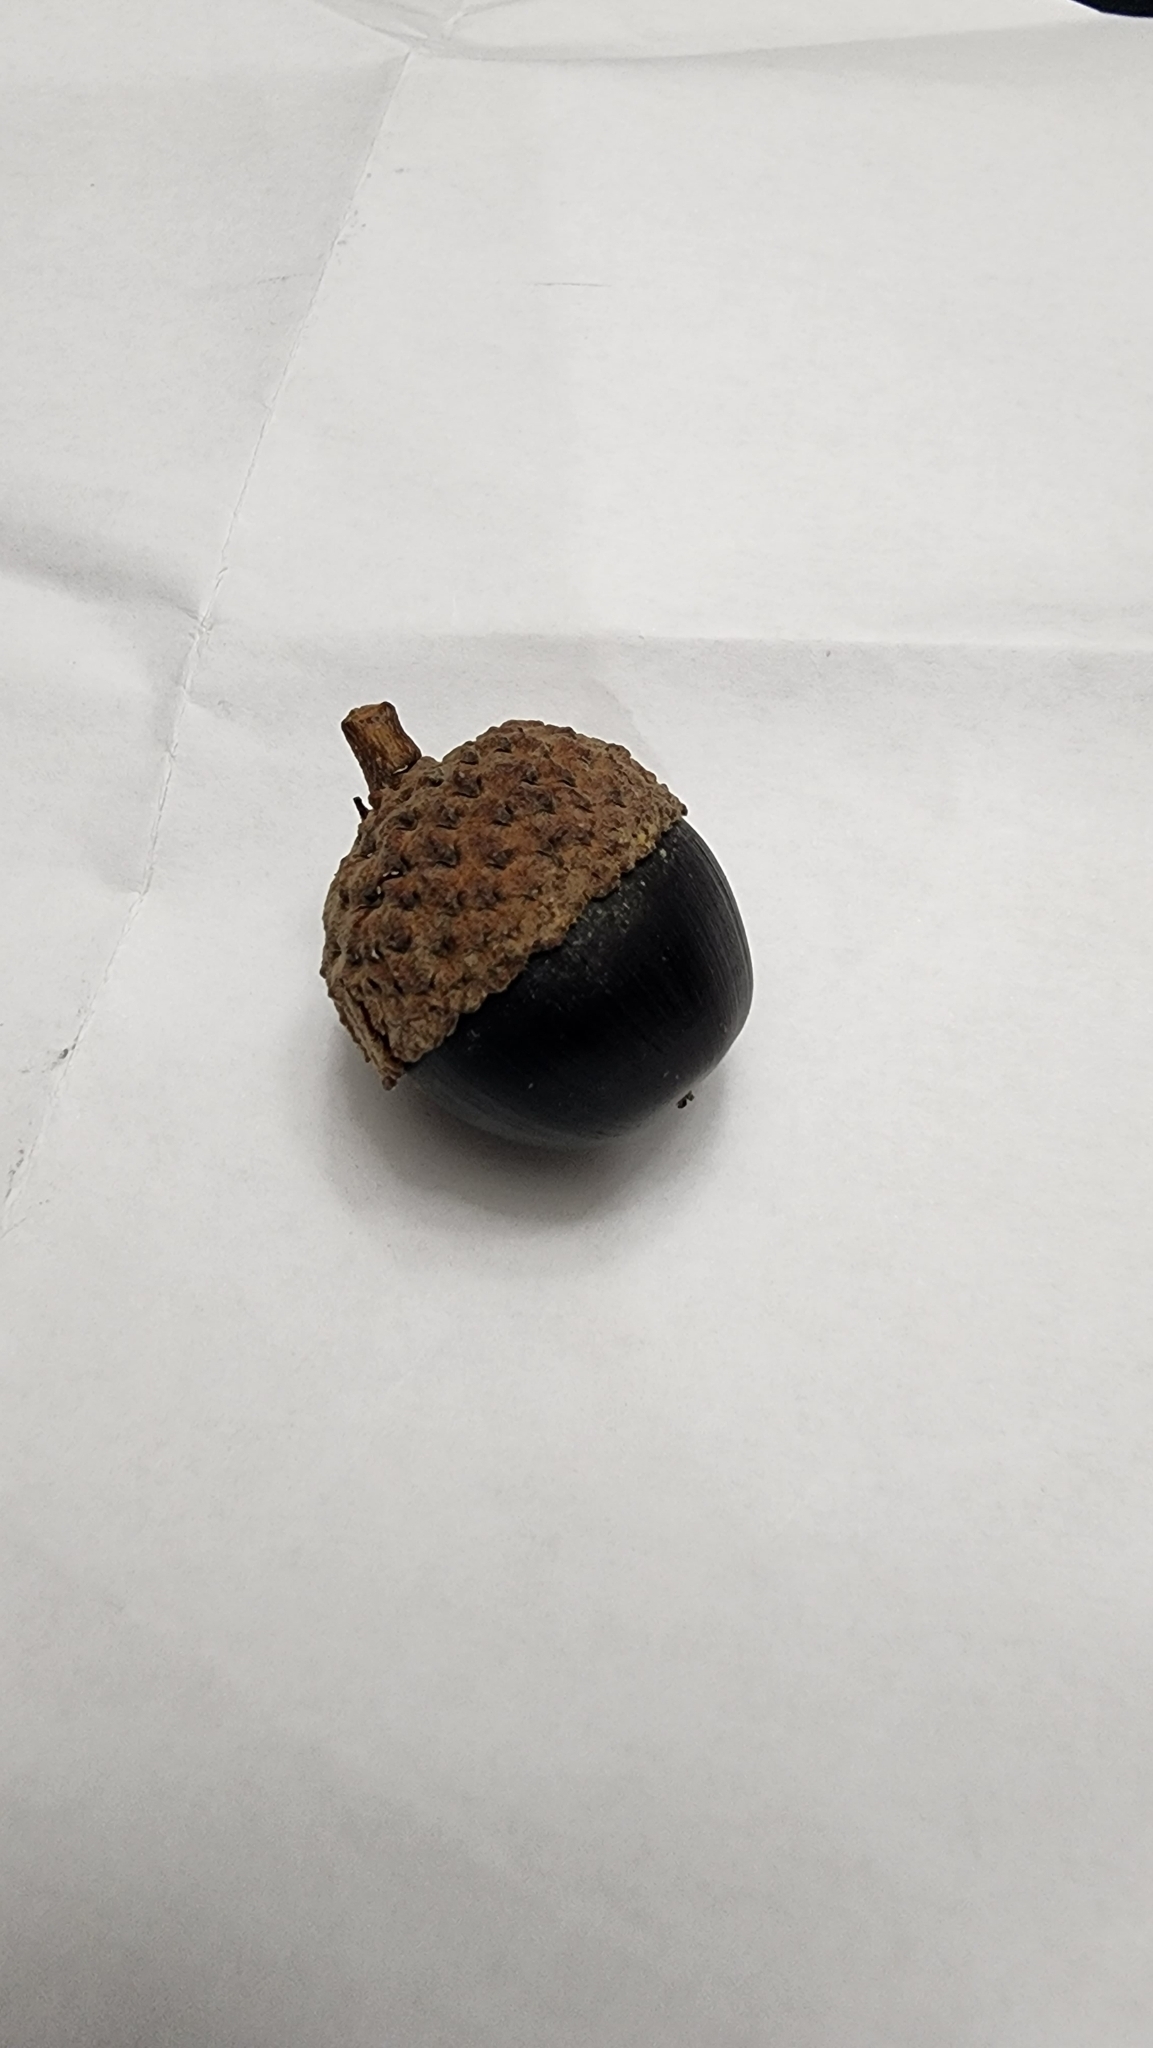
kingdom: Plantae
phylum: Tracheophyta
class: Magnoliopsida
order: Fagales
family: Fagaceae
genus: Quercus
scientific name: Quercus montana
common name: Chestnut oak
